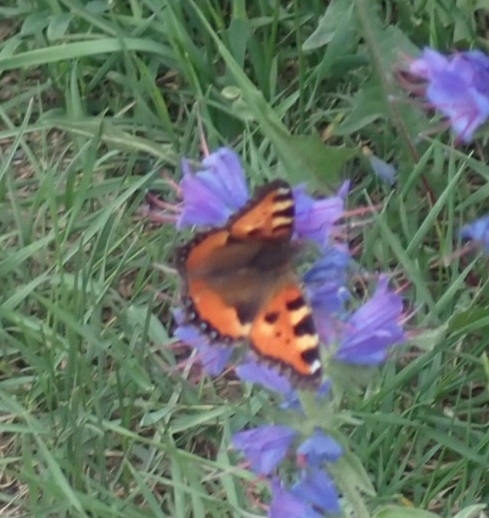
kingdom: Animalia
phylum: Arthropoda
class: Insecta
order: Lepidoptera
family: Nymphalidae
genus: Aglais
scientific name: Aglais urticae
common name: Small tortoiseshell
